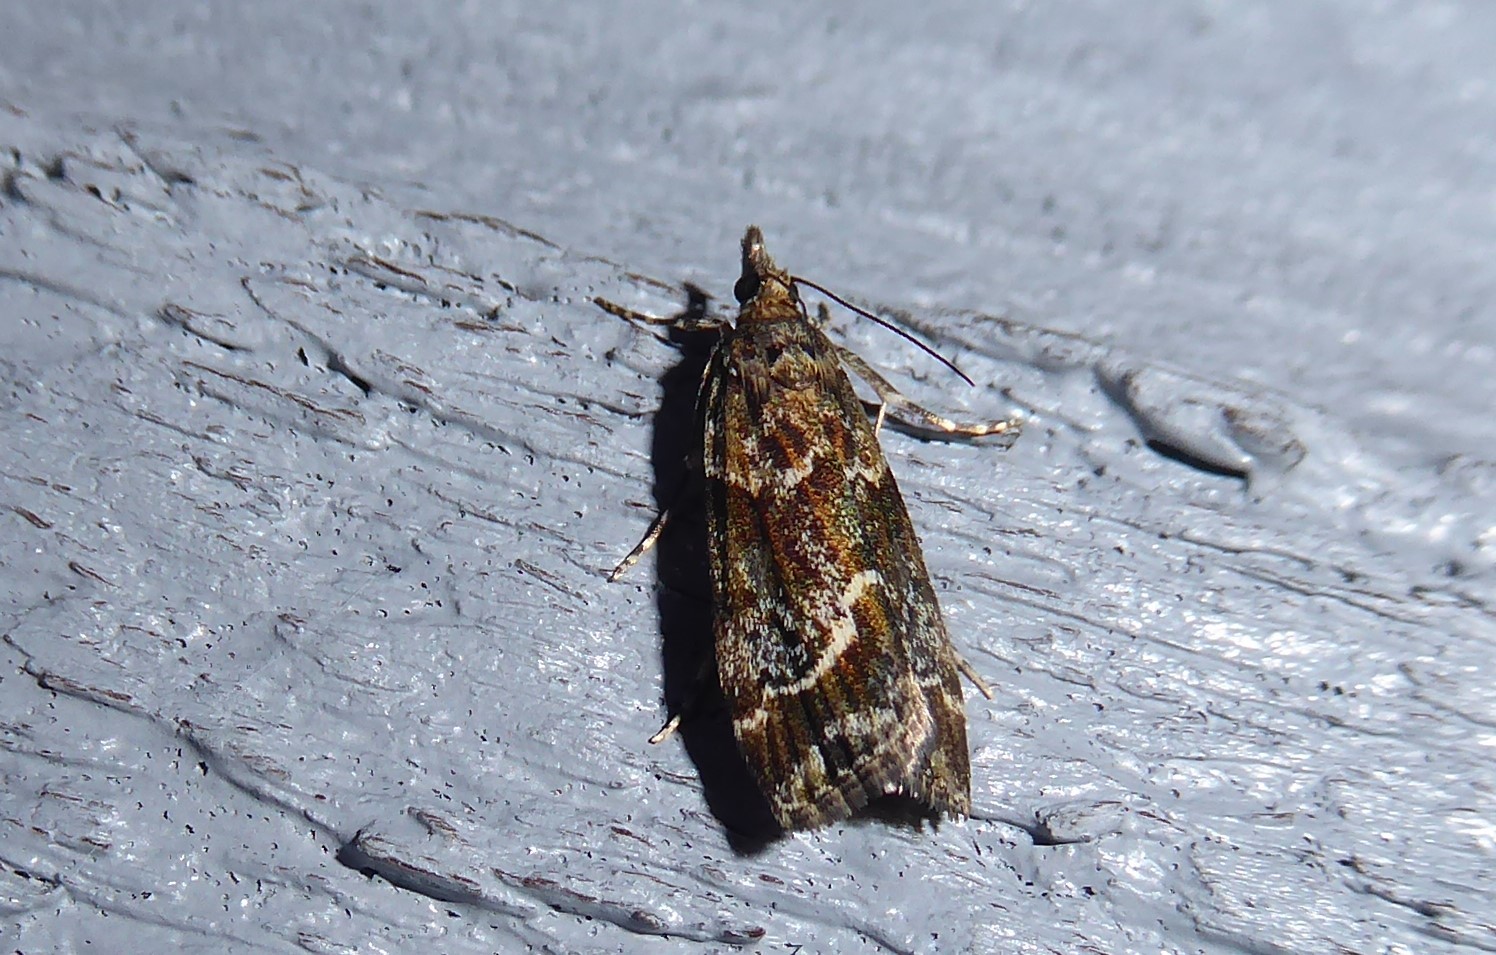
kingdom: Animalia
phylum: Arthropoda
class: Insecta
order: Lepidoptera
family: Crambidae
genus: Eudonia
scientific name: Eudonia legnota
